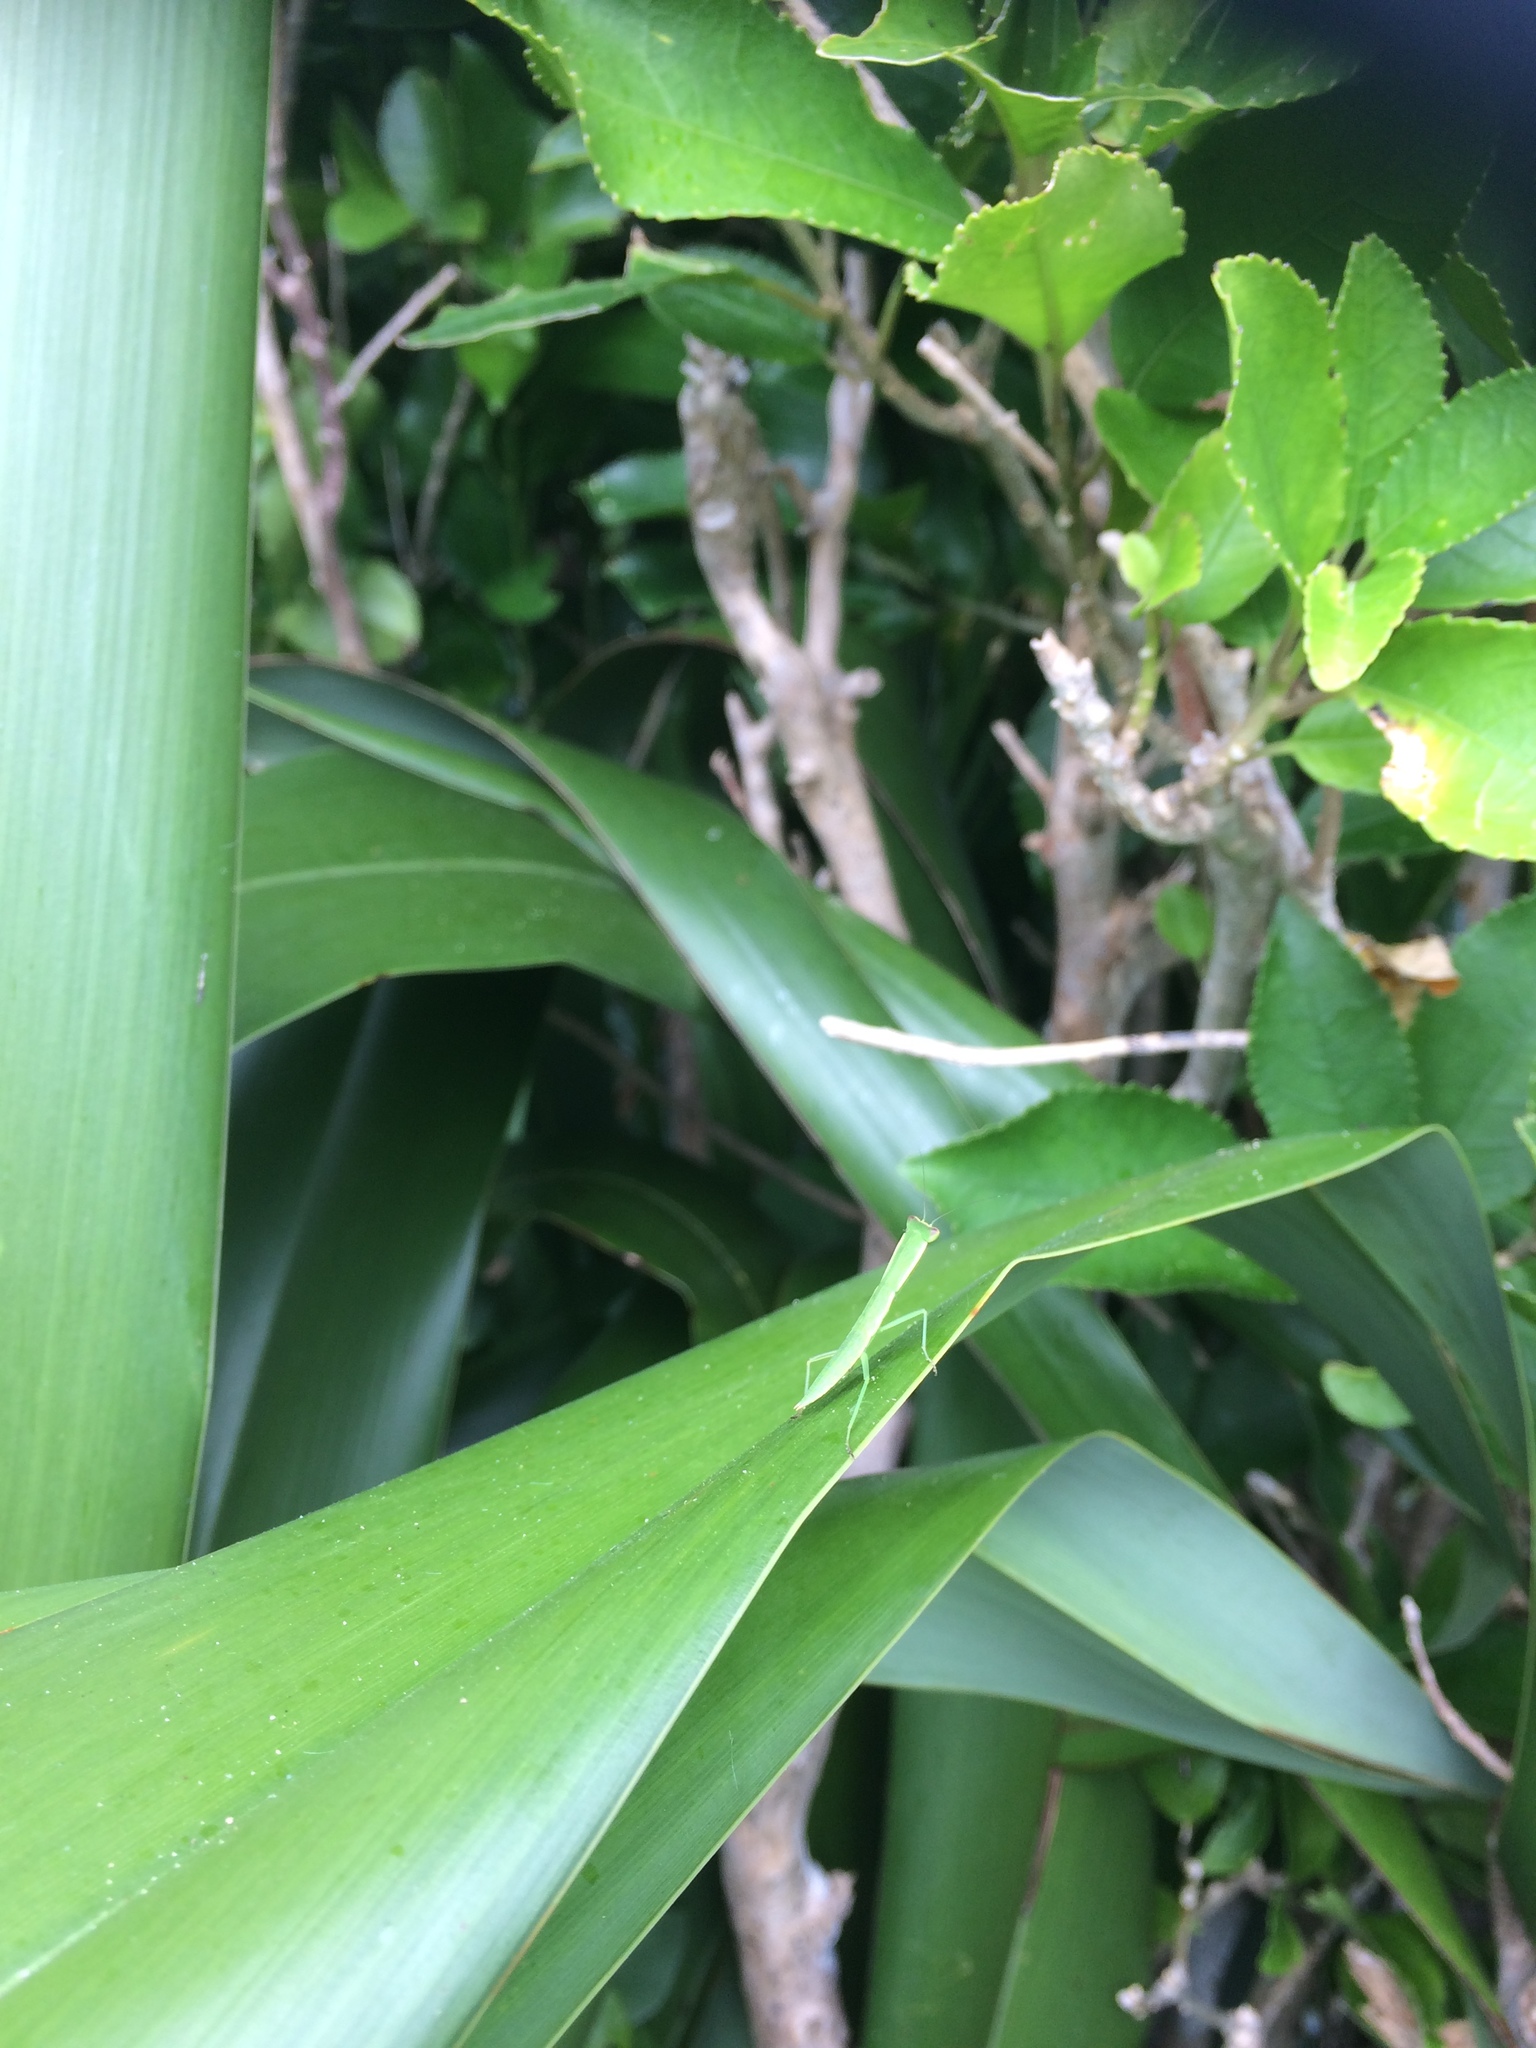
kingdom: Animalia
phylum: Arthropoda
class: Insecta
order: Mantodea
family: Mantidae
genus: Orthodera
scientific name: Orthodera novaezealandiae
